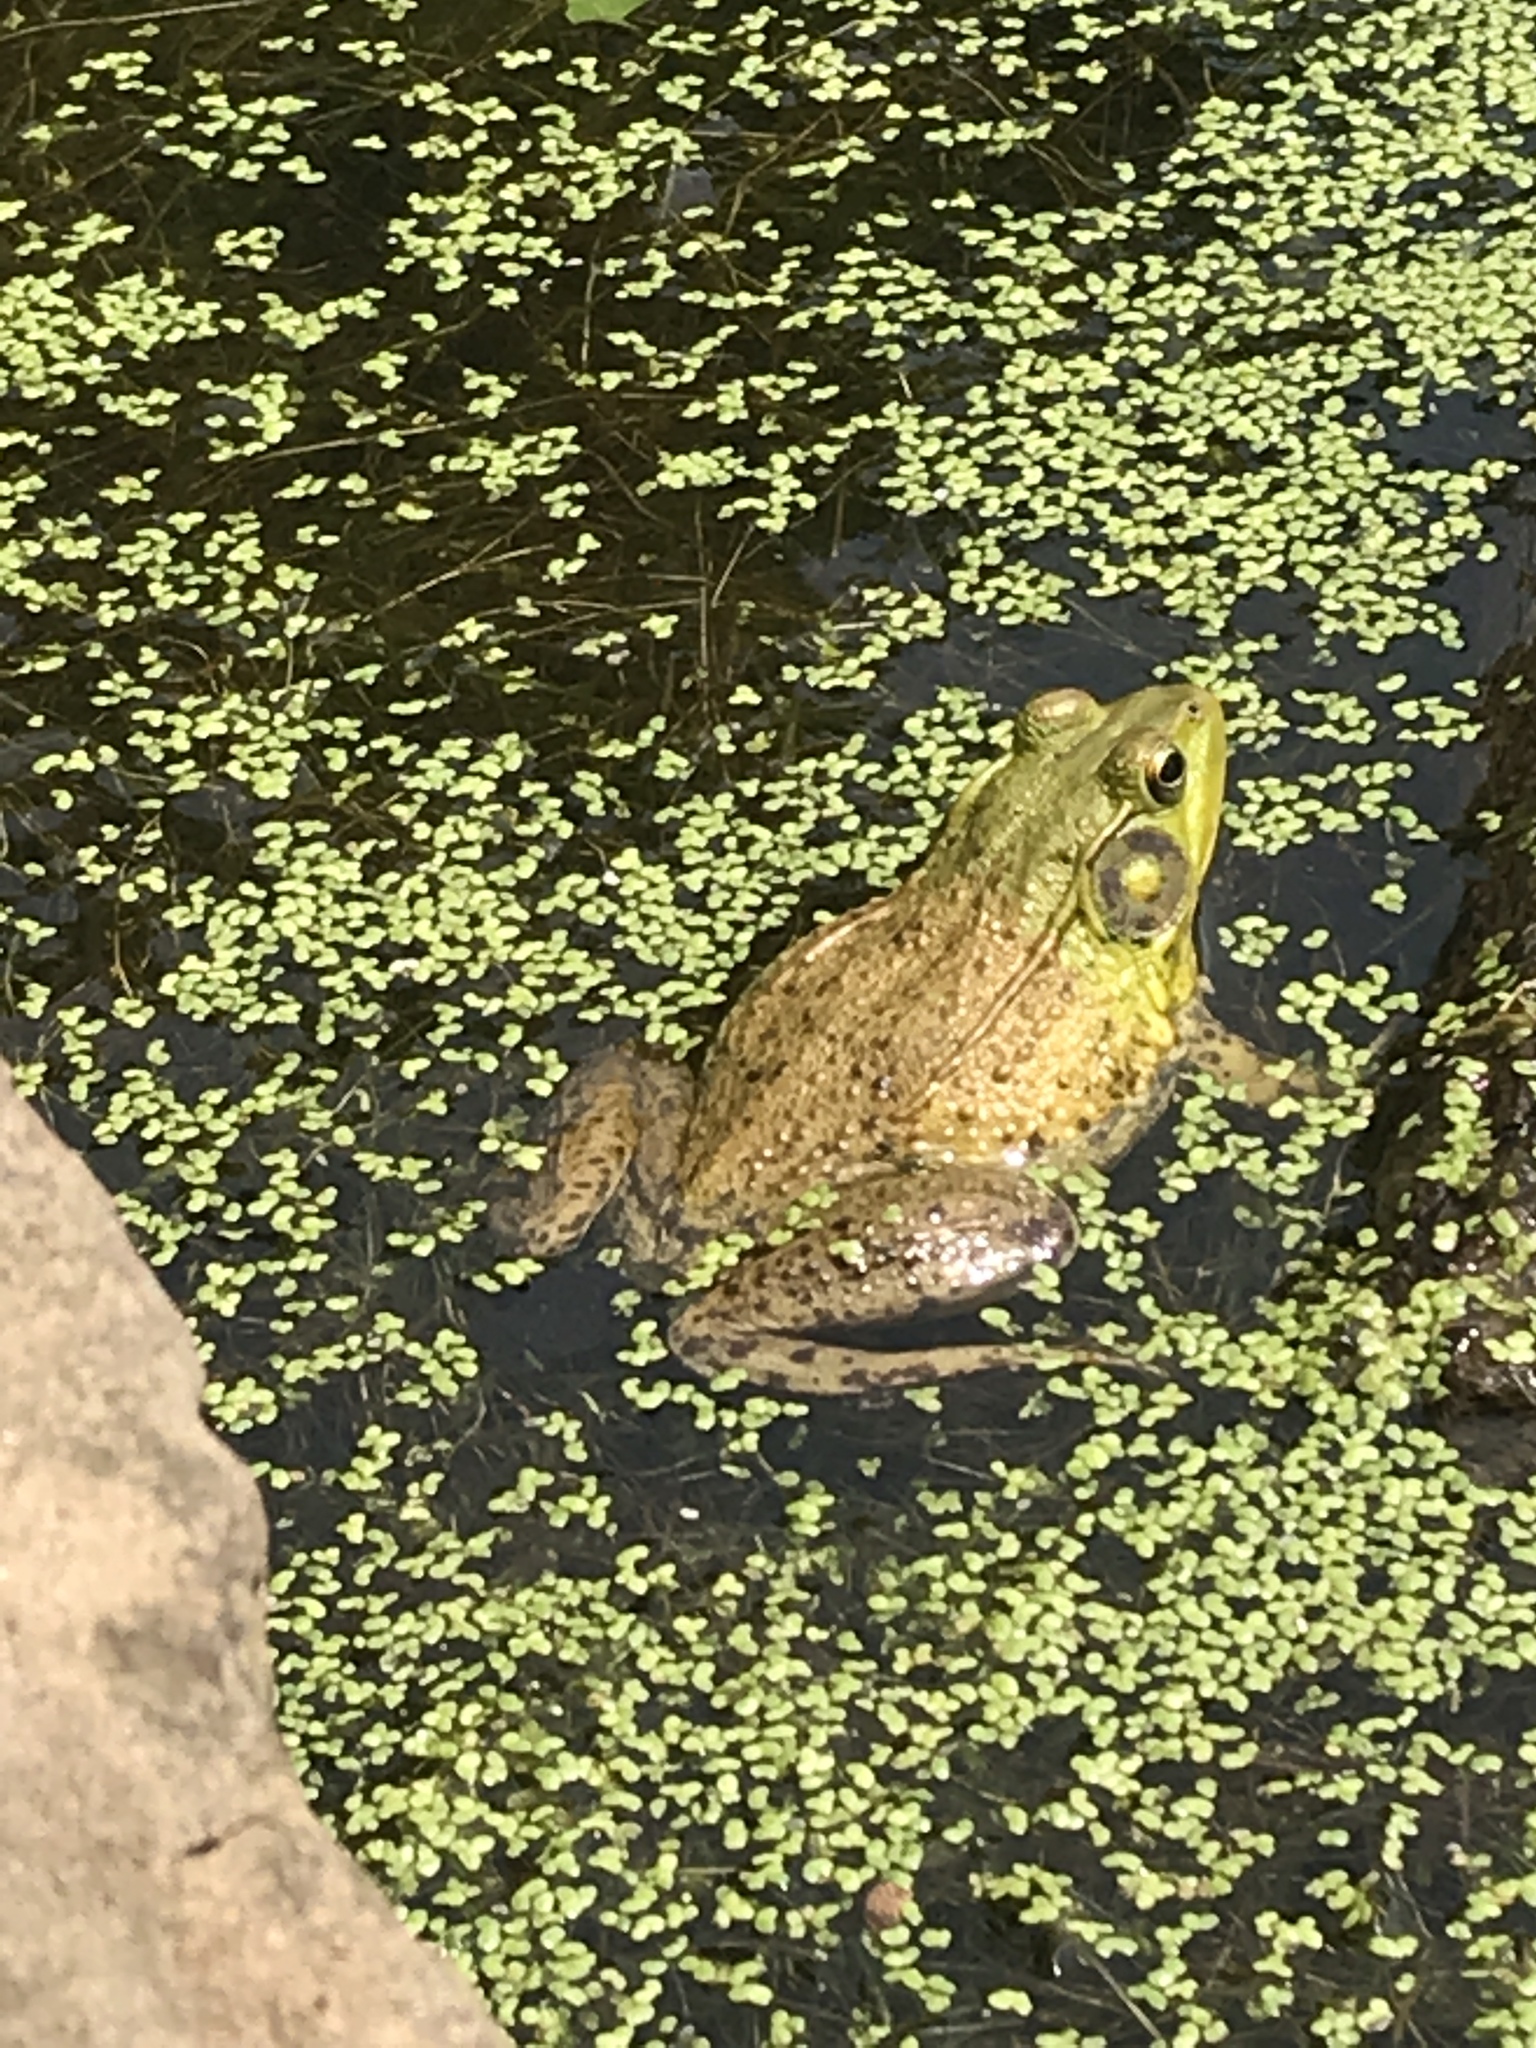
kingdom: Animalia
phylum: Chordata
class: Amphibia
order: Anura
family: Ranidae
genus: Lithobates
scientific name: Lithobates clamitans
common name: Green frog
